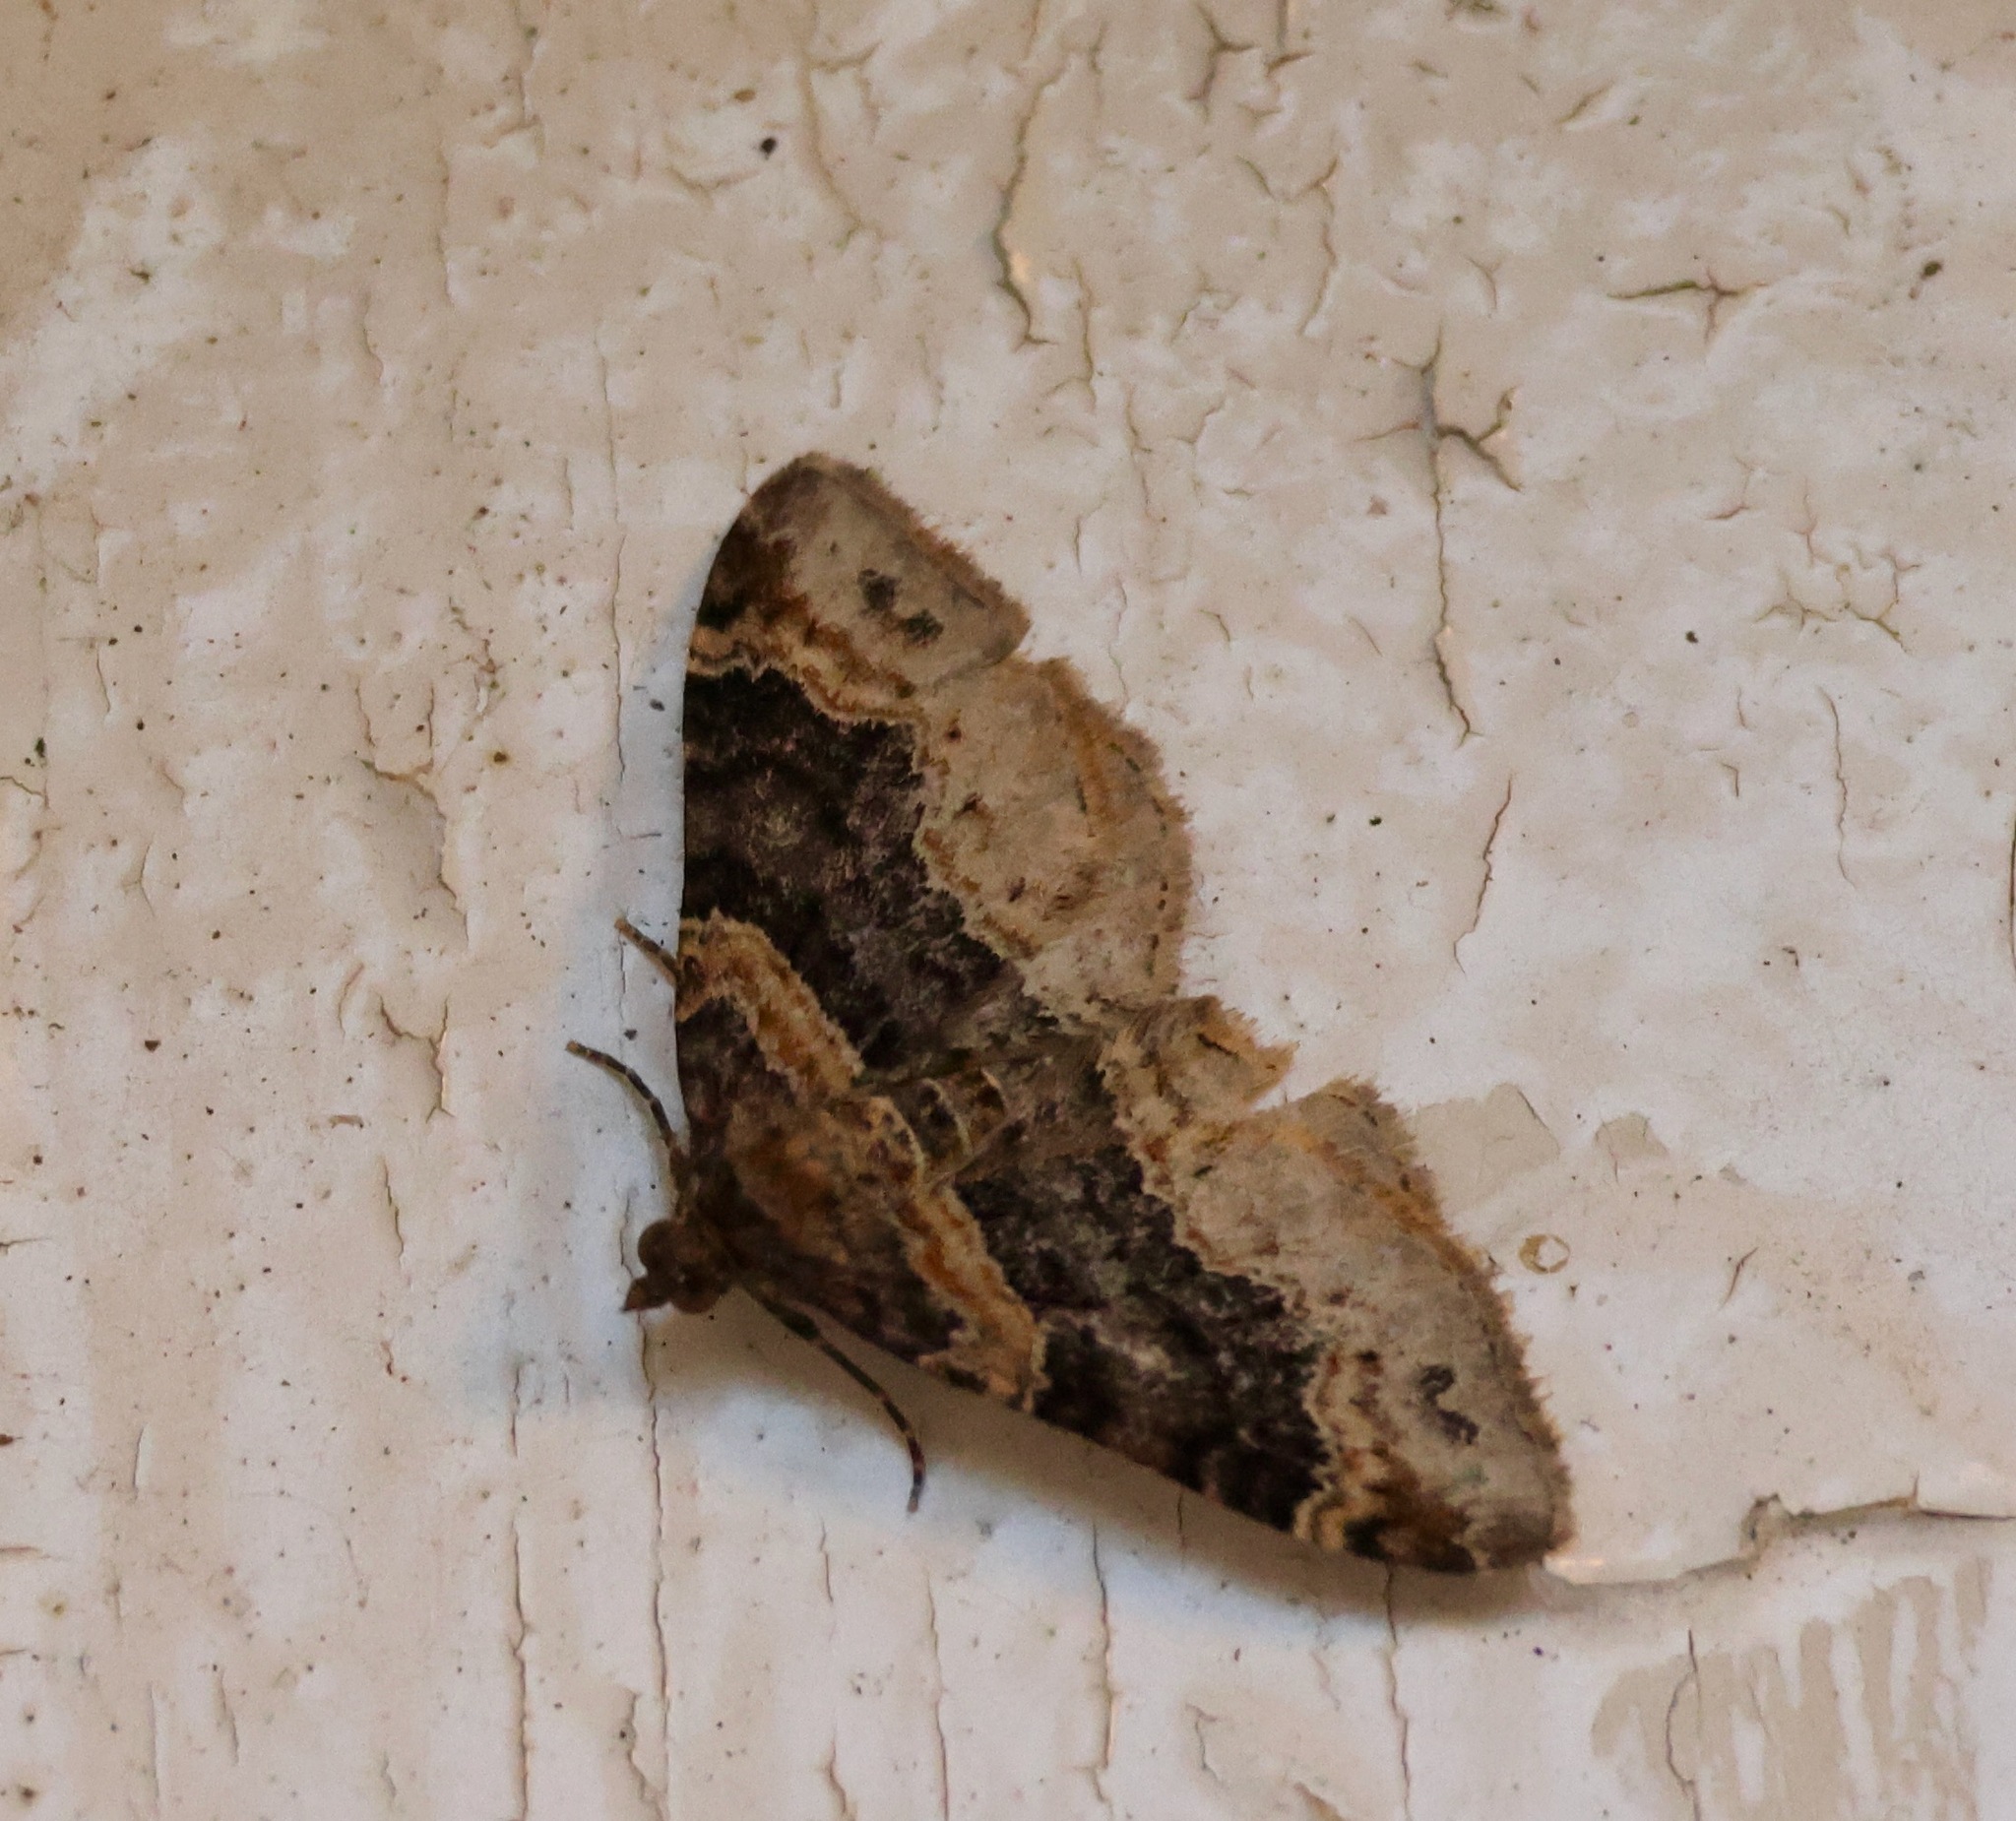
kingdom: Animalia
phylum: Arthropoda
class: Insecta
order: Lepidoptera
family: Geometridae
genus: Xanthorhoe
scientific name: Xanthorhoe ferrugata
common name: Dark-barred twin-spot carpet
